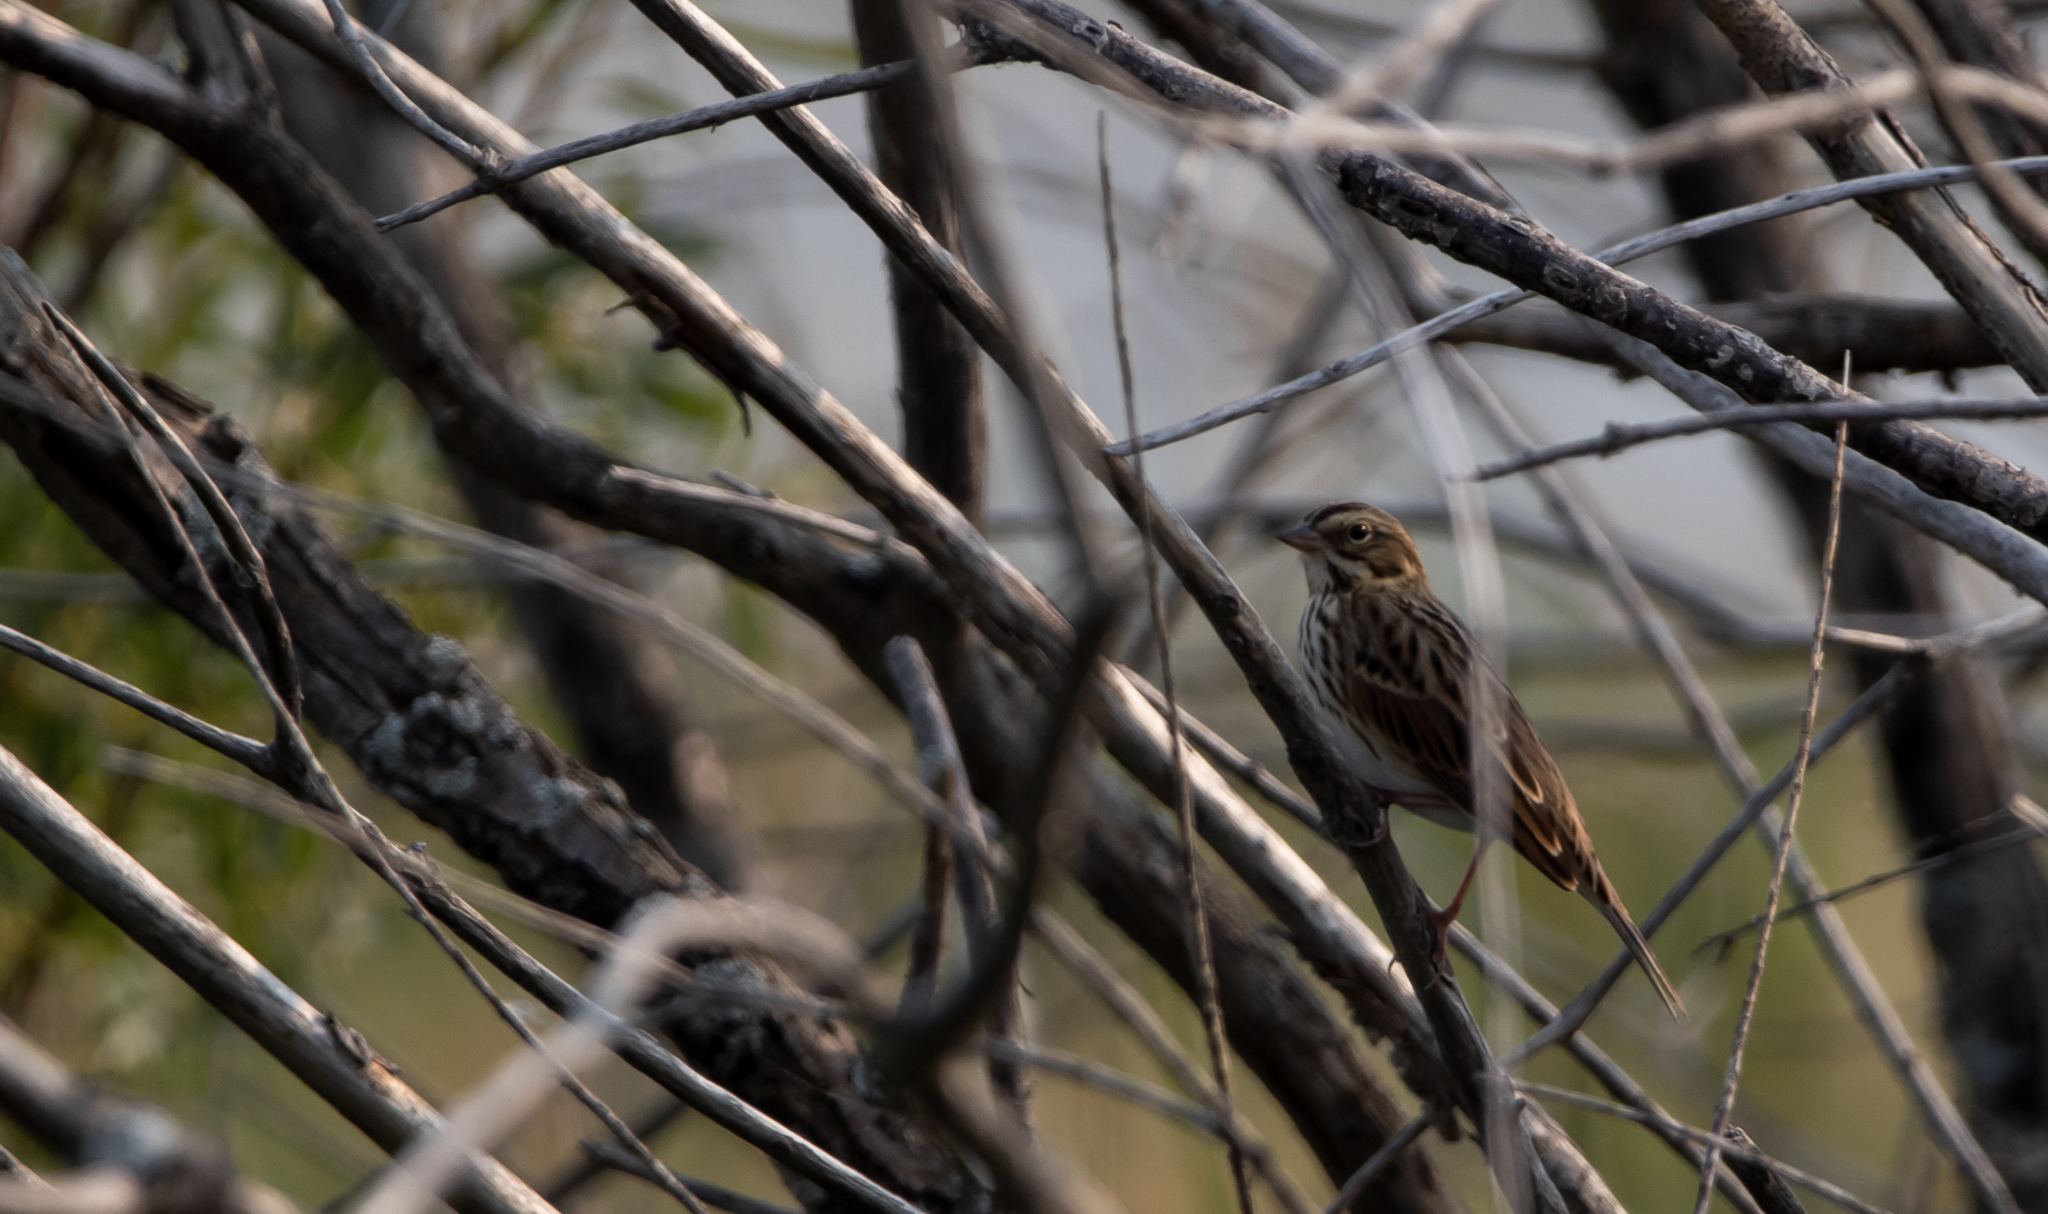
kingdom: Animalia
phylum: Chordata
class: Aves
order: Passeriformes
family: Passerellidae
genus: Passerculus
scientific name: Passerculus sandwichensis
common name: Savannah sparrow
